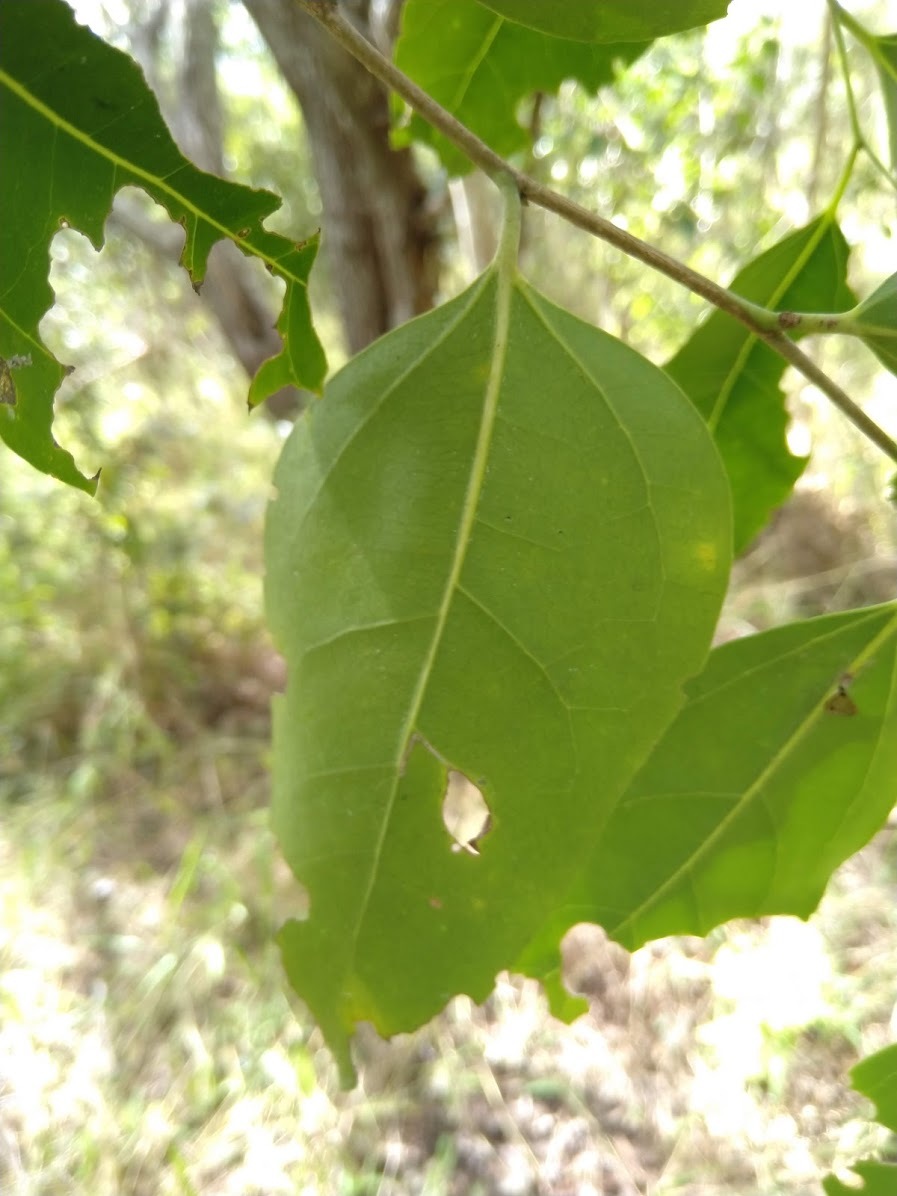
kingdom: Plantae
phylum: Tracheophyta
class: Magnoliopsida
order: Rosales
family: Cannabaceae
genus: Celtis
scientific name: Celtis paniculata
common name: Silky celtis
